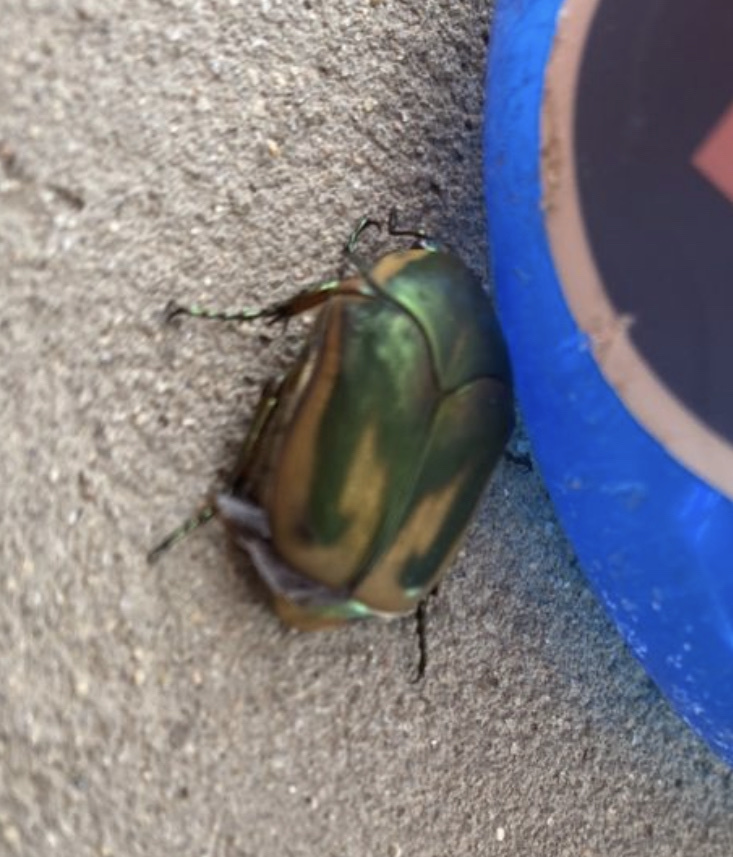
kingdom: Animalia
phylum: Arthropoda
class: Insecta
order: Coleoptera
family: Scarabaeidae
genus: Cotinis
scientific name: Cotinis nitida
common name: Common green june beetle
